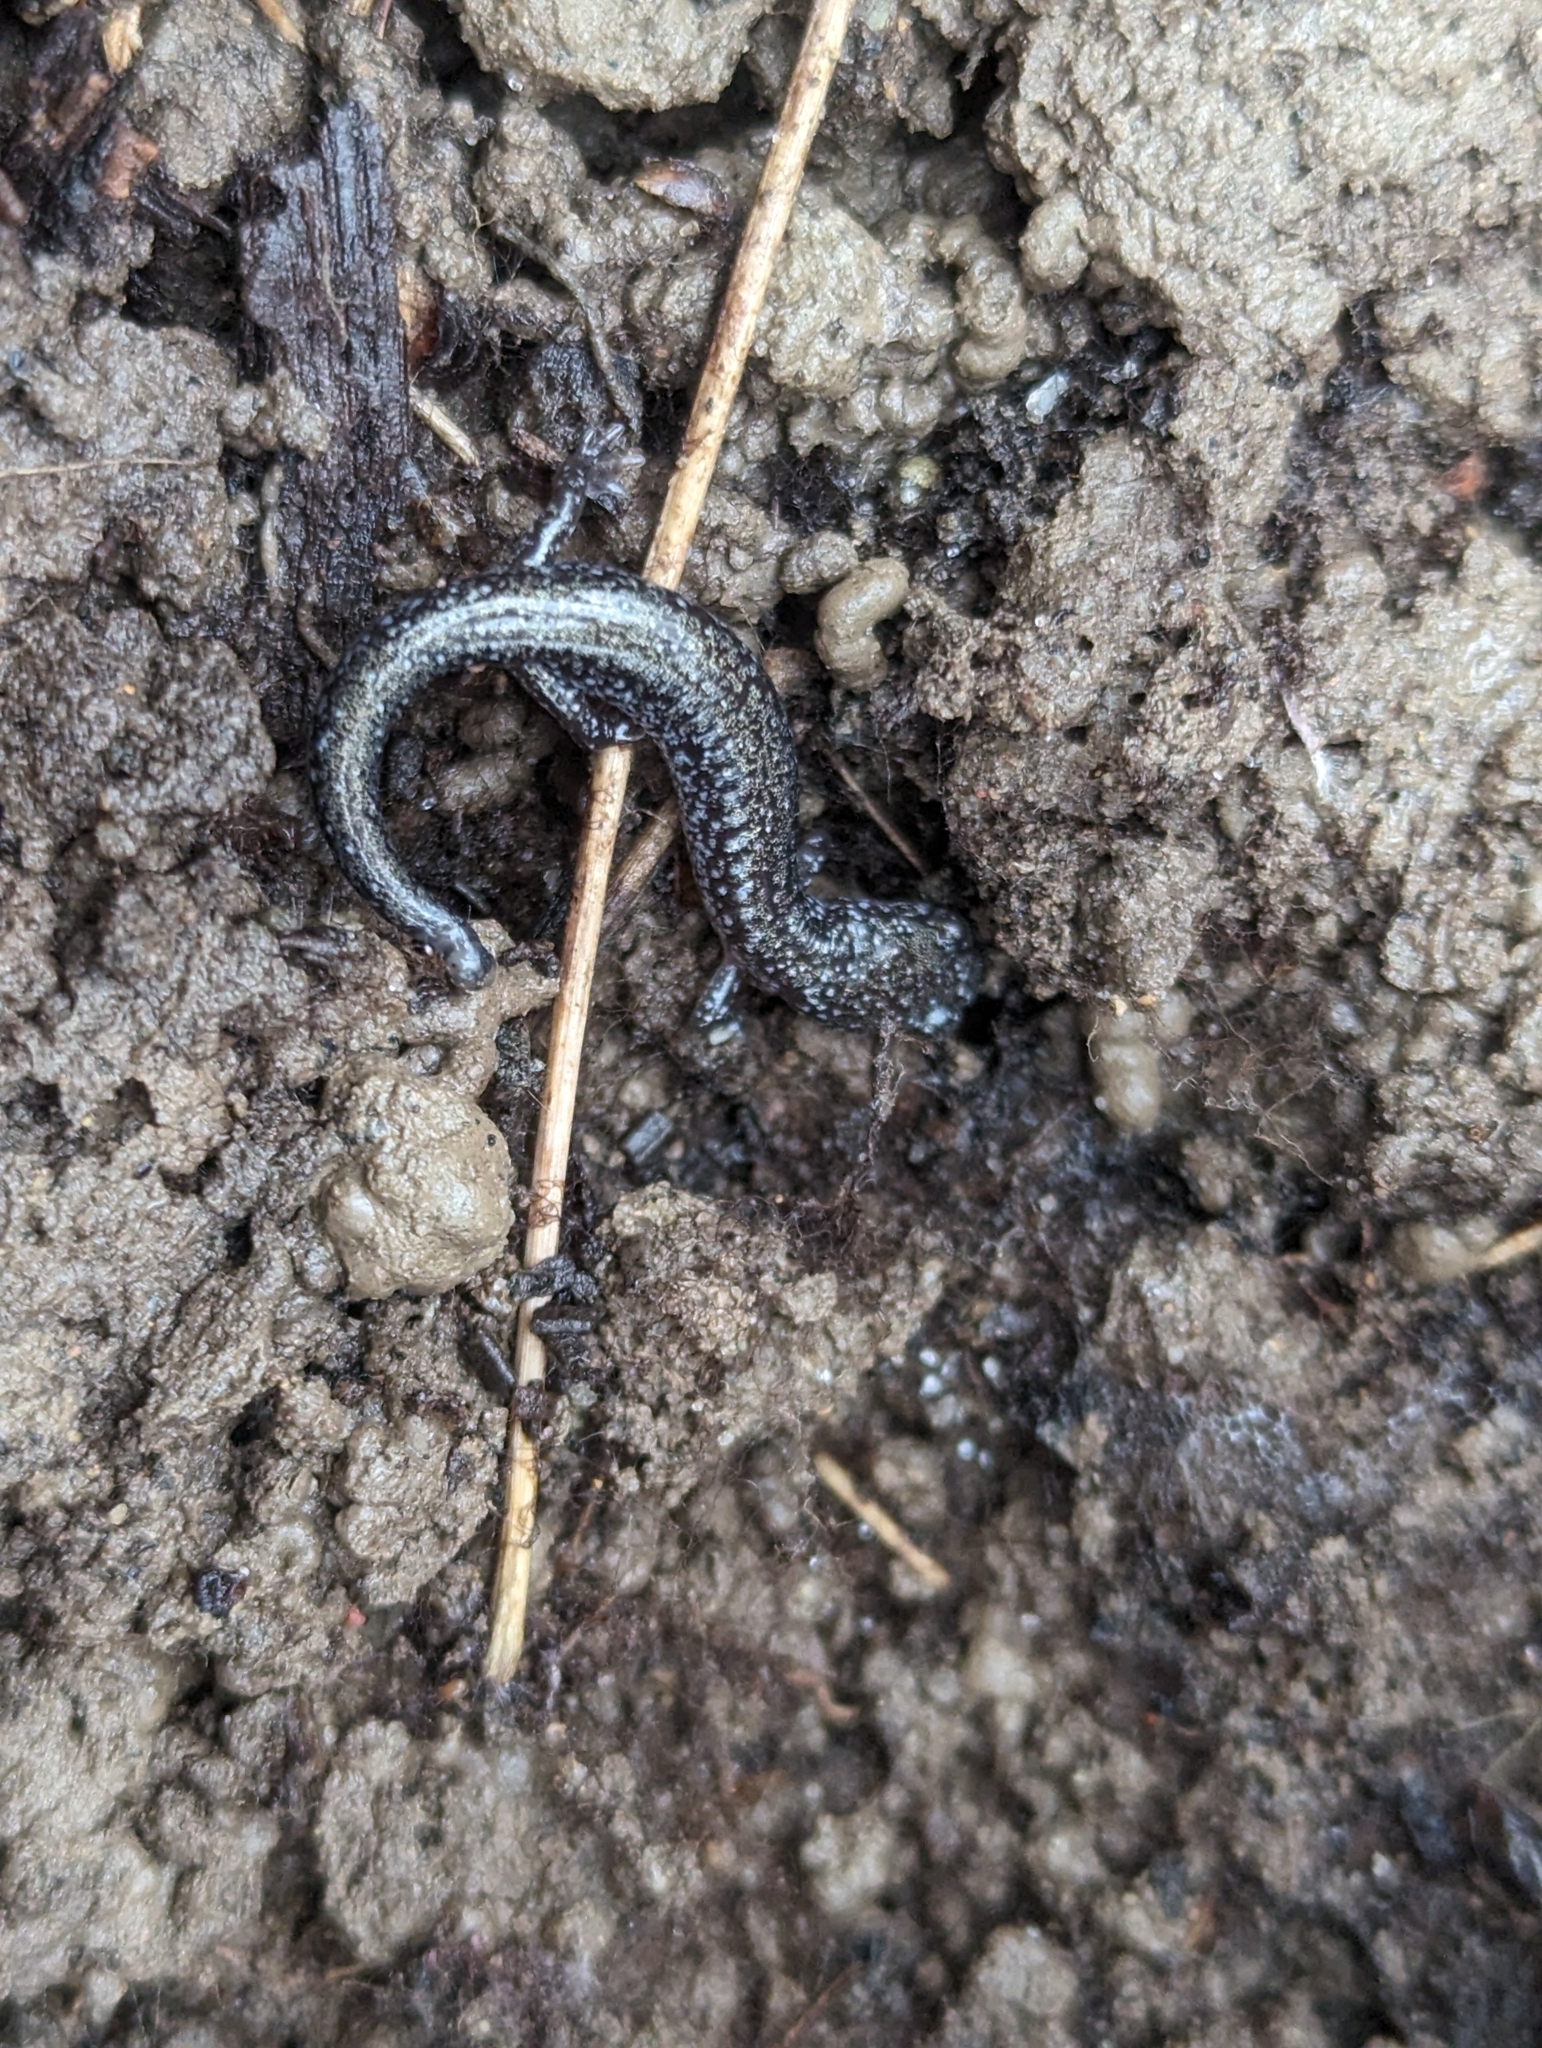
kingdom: Animalia
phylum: Chordata
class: Amphibia
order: Caudata
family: Plethodontidae
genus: Plethodon
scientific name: Plethodon cinereus
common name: Redback salamander
